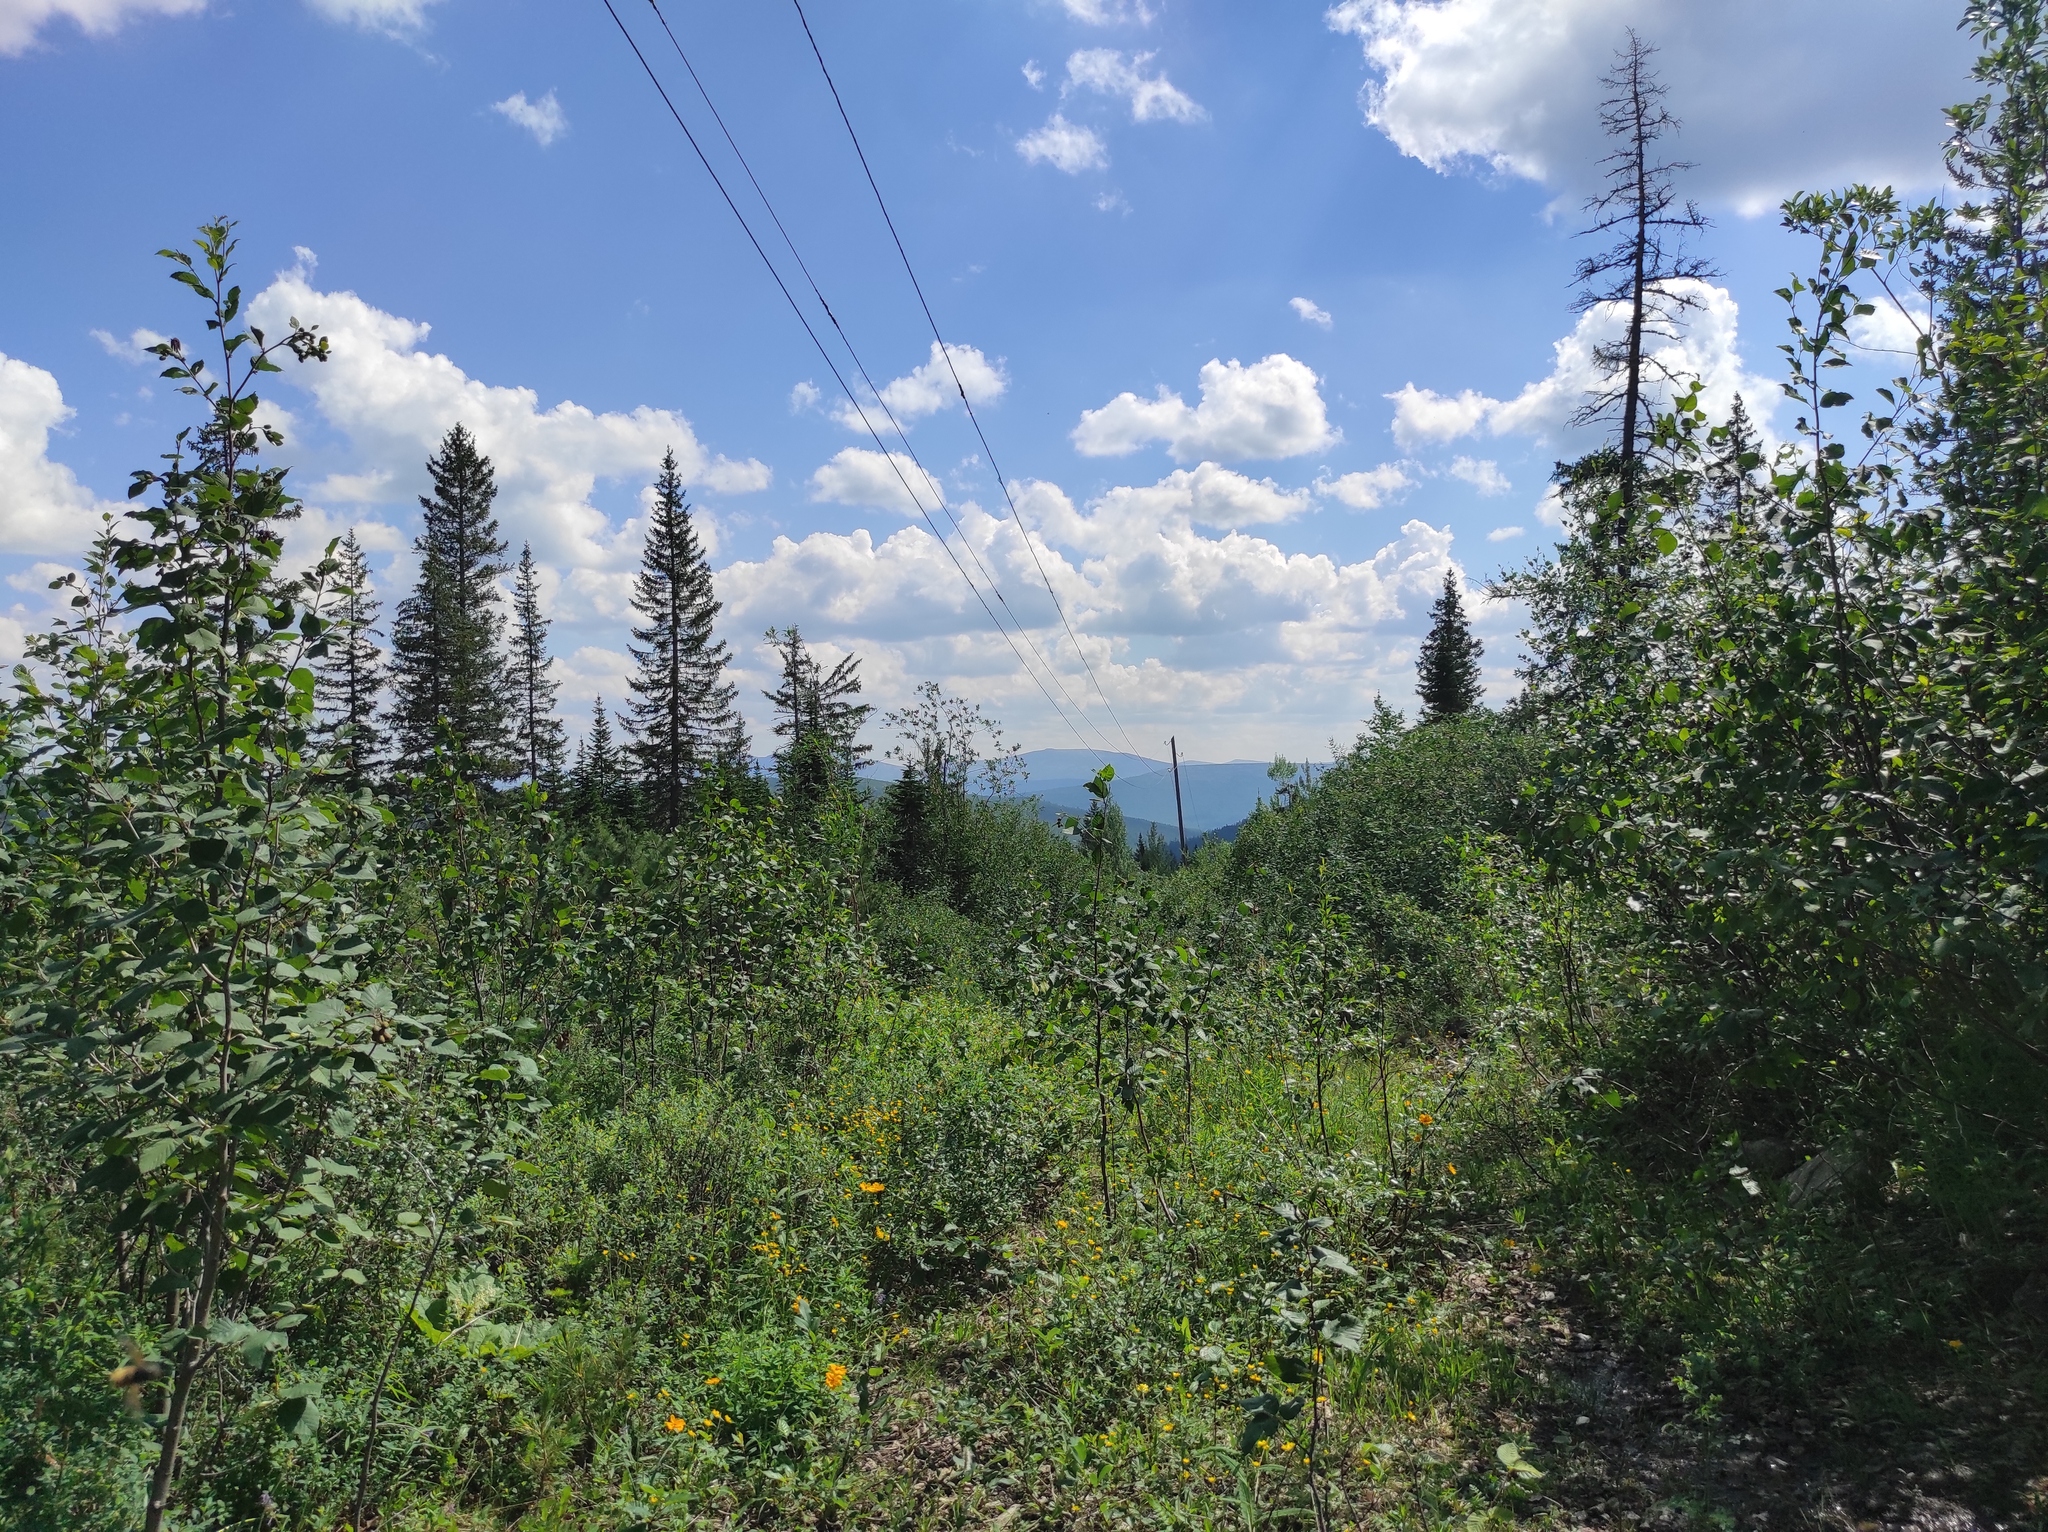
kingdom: Plantae
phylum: Tracheophyta
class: Magnoliopsida
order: Fagales
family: Betulaceae
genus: Alnus
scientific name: Alnus alnobetula
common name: Green alder
